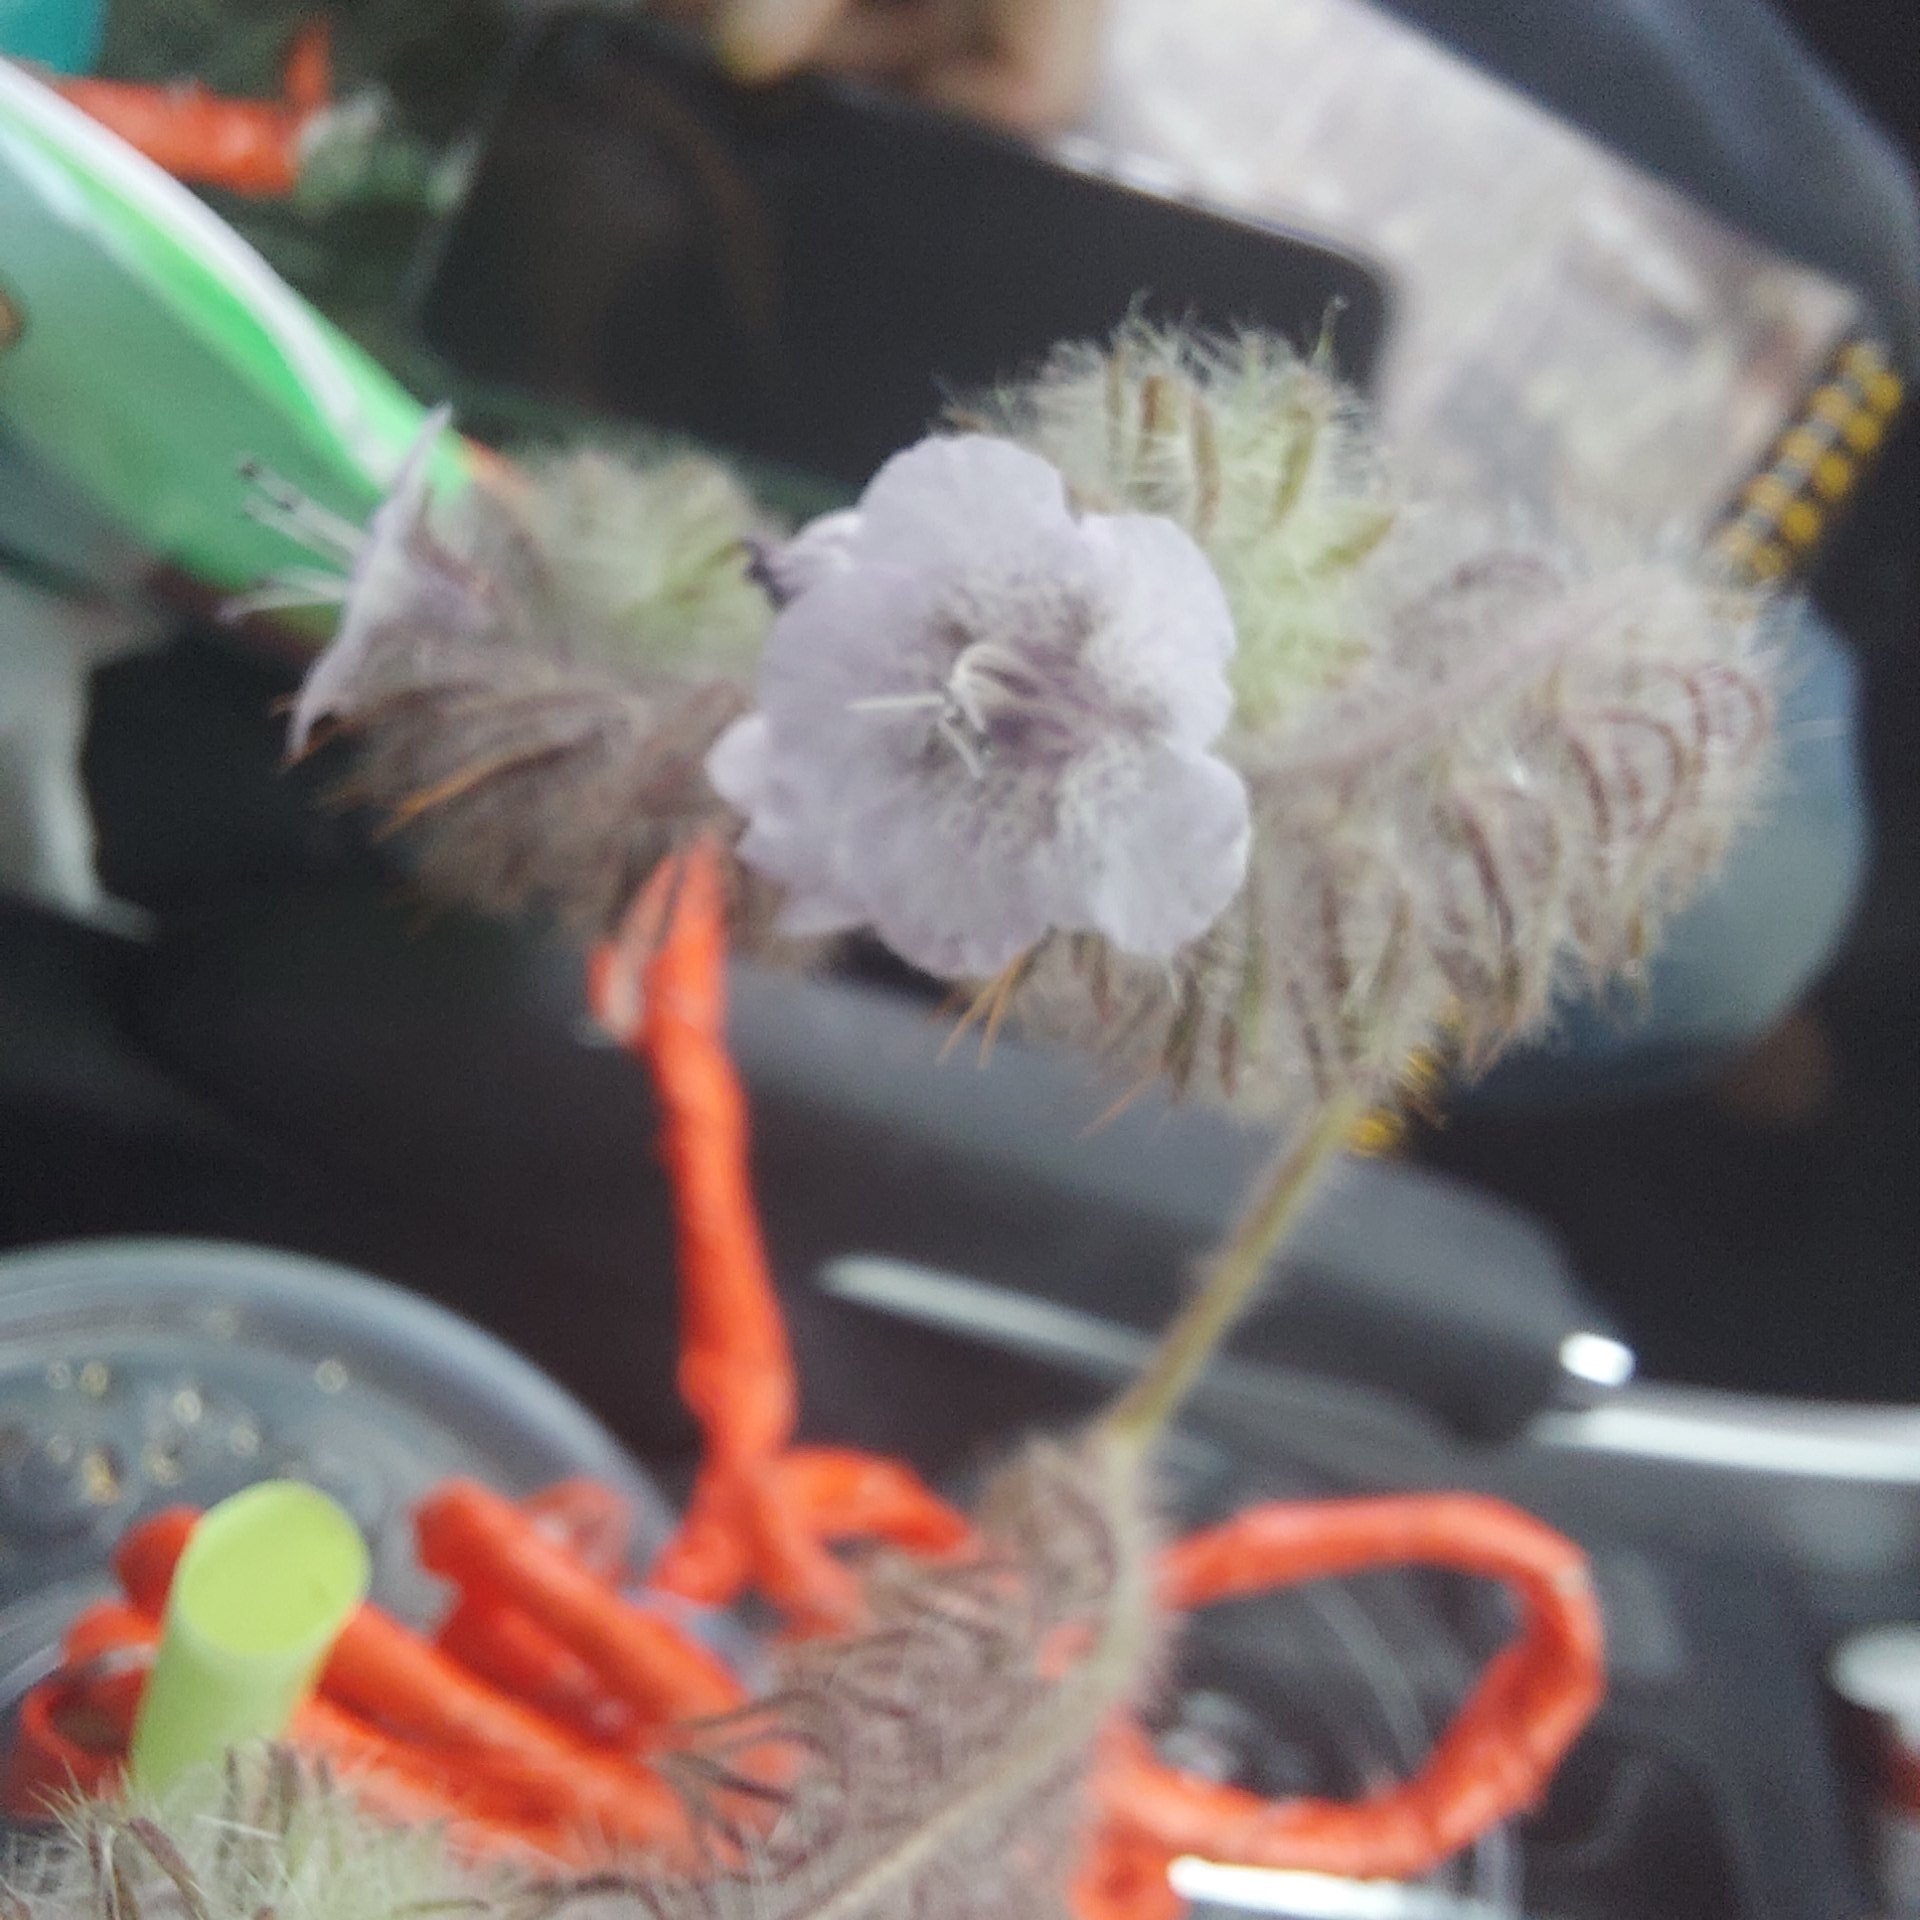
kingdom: Plantae
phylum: Tracheophyta
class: Magnoliopsida
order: Boraginales
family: Hydrophyllaceae
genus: Phacelia
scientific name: Phacelia cicutaria
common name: Caterpillar phacelia
